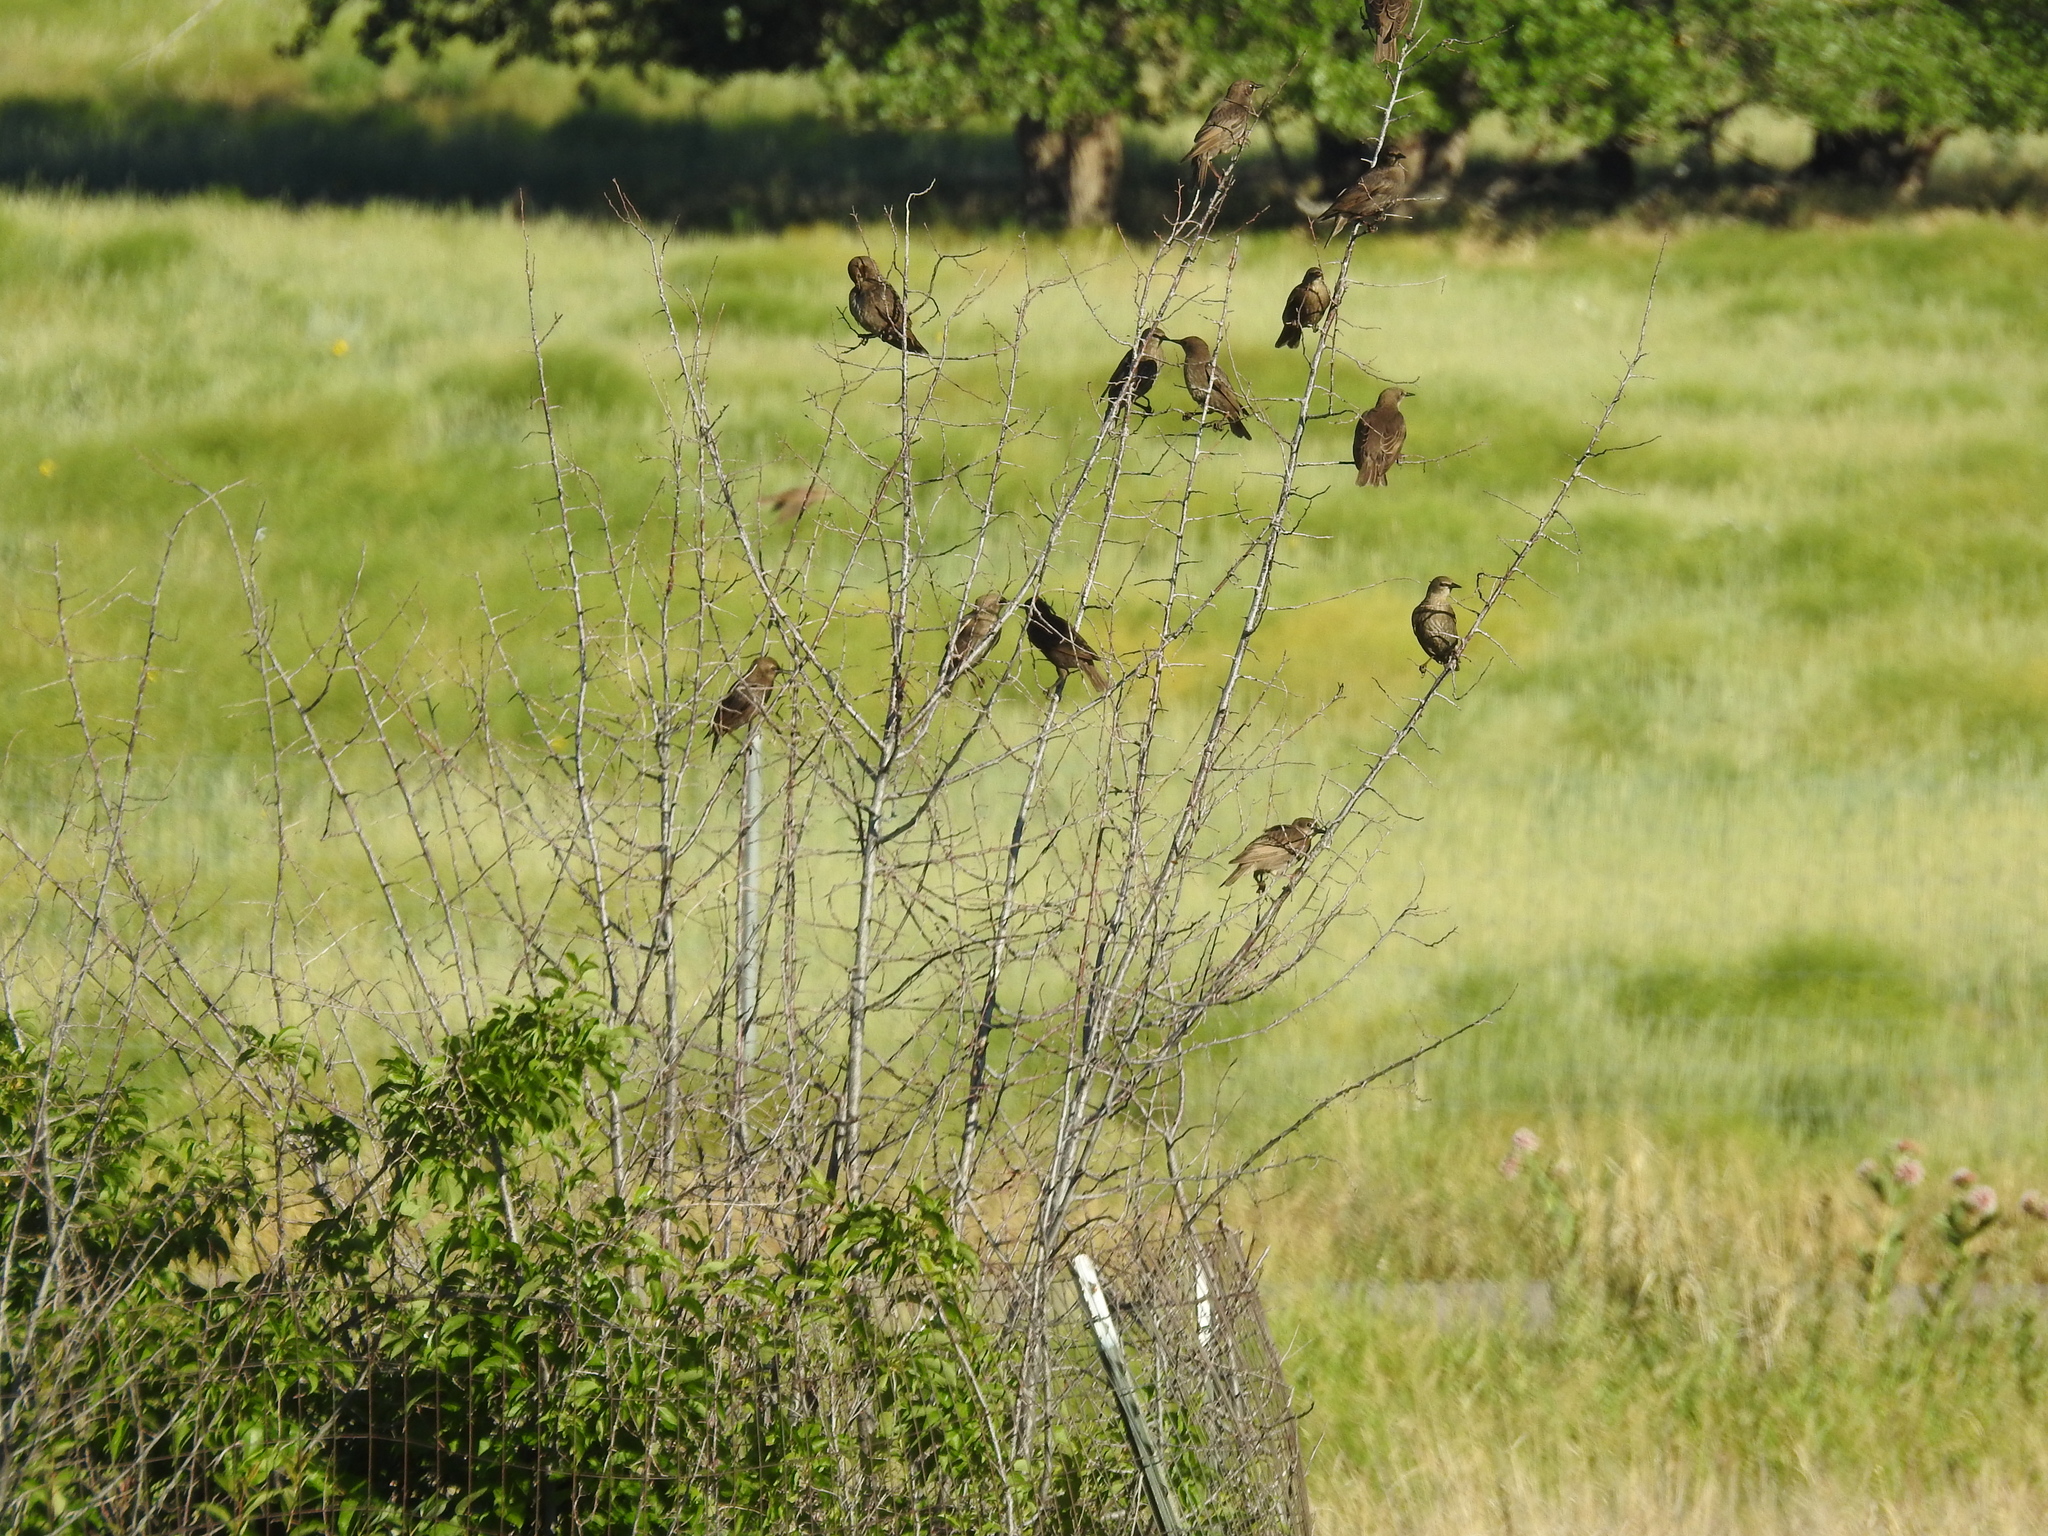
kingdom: Animalia
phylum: Chordata
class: Aves
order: Passeriformes
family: Sturnidae
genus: Sturnus
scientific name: Sturnus vulgaris
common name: Common starling
